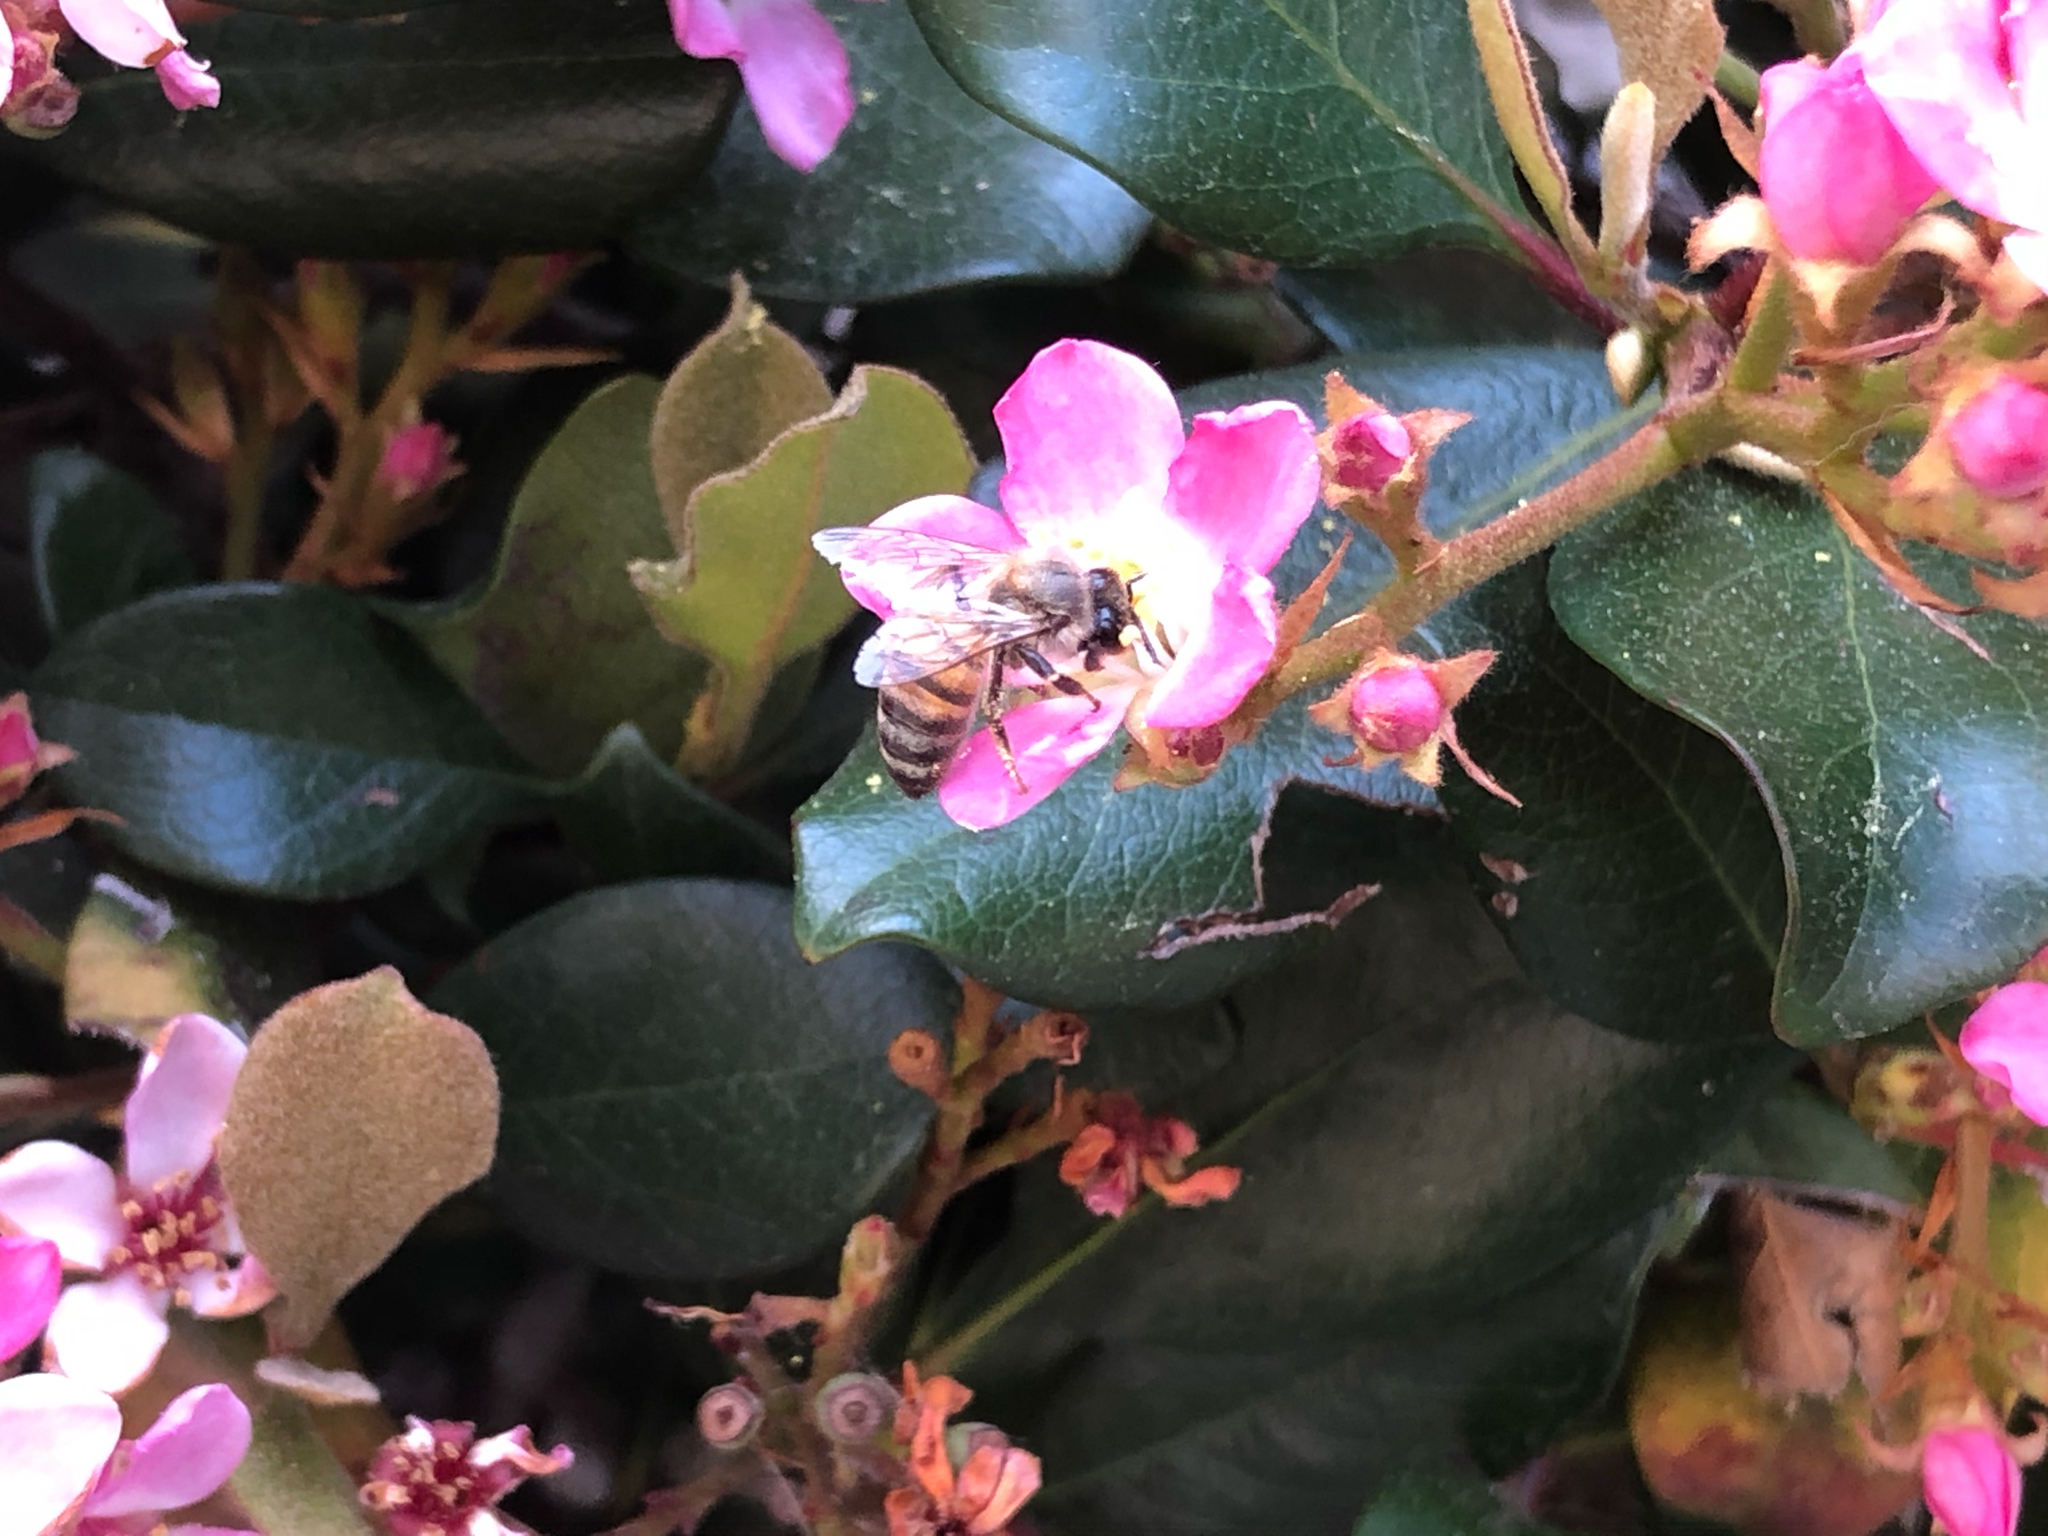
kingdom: Animalia
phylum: Arthropoda
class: Insecta
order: Hymenoptera
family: Apidae
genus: Apis
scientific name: Apis mellifera
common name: Honey bee
